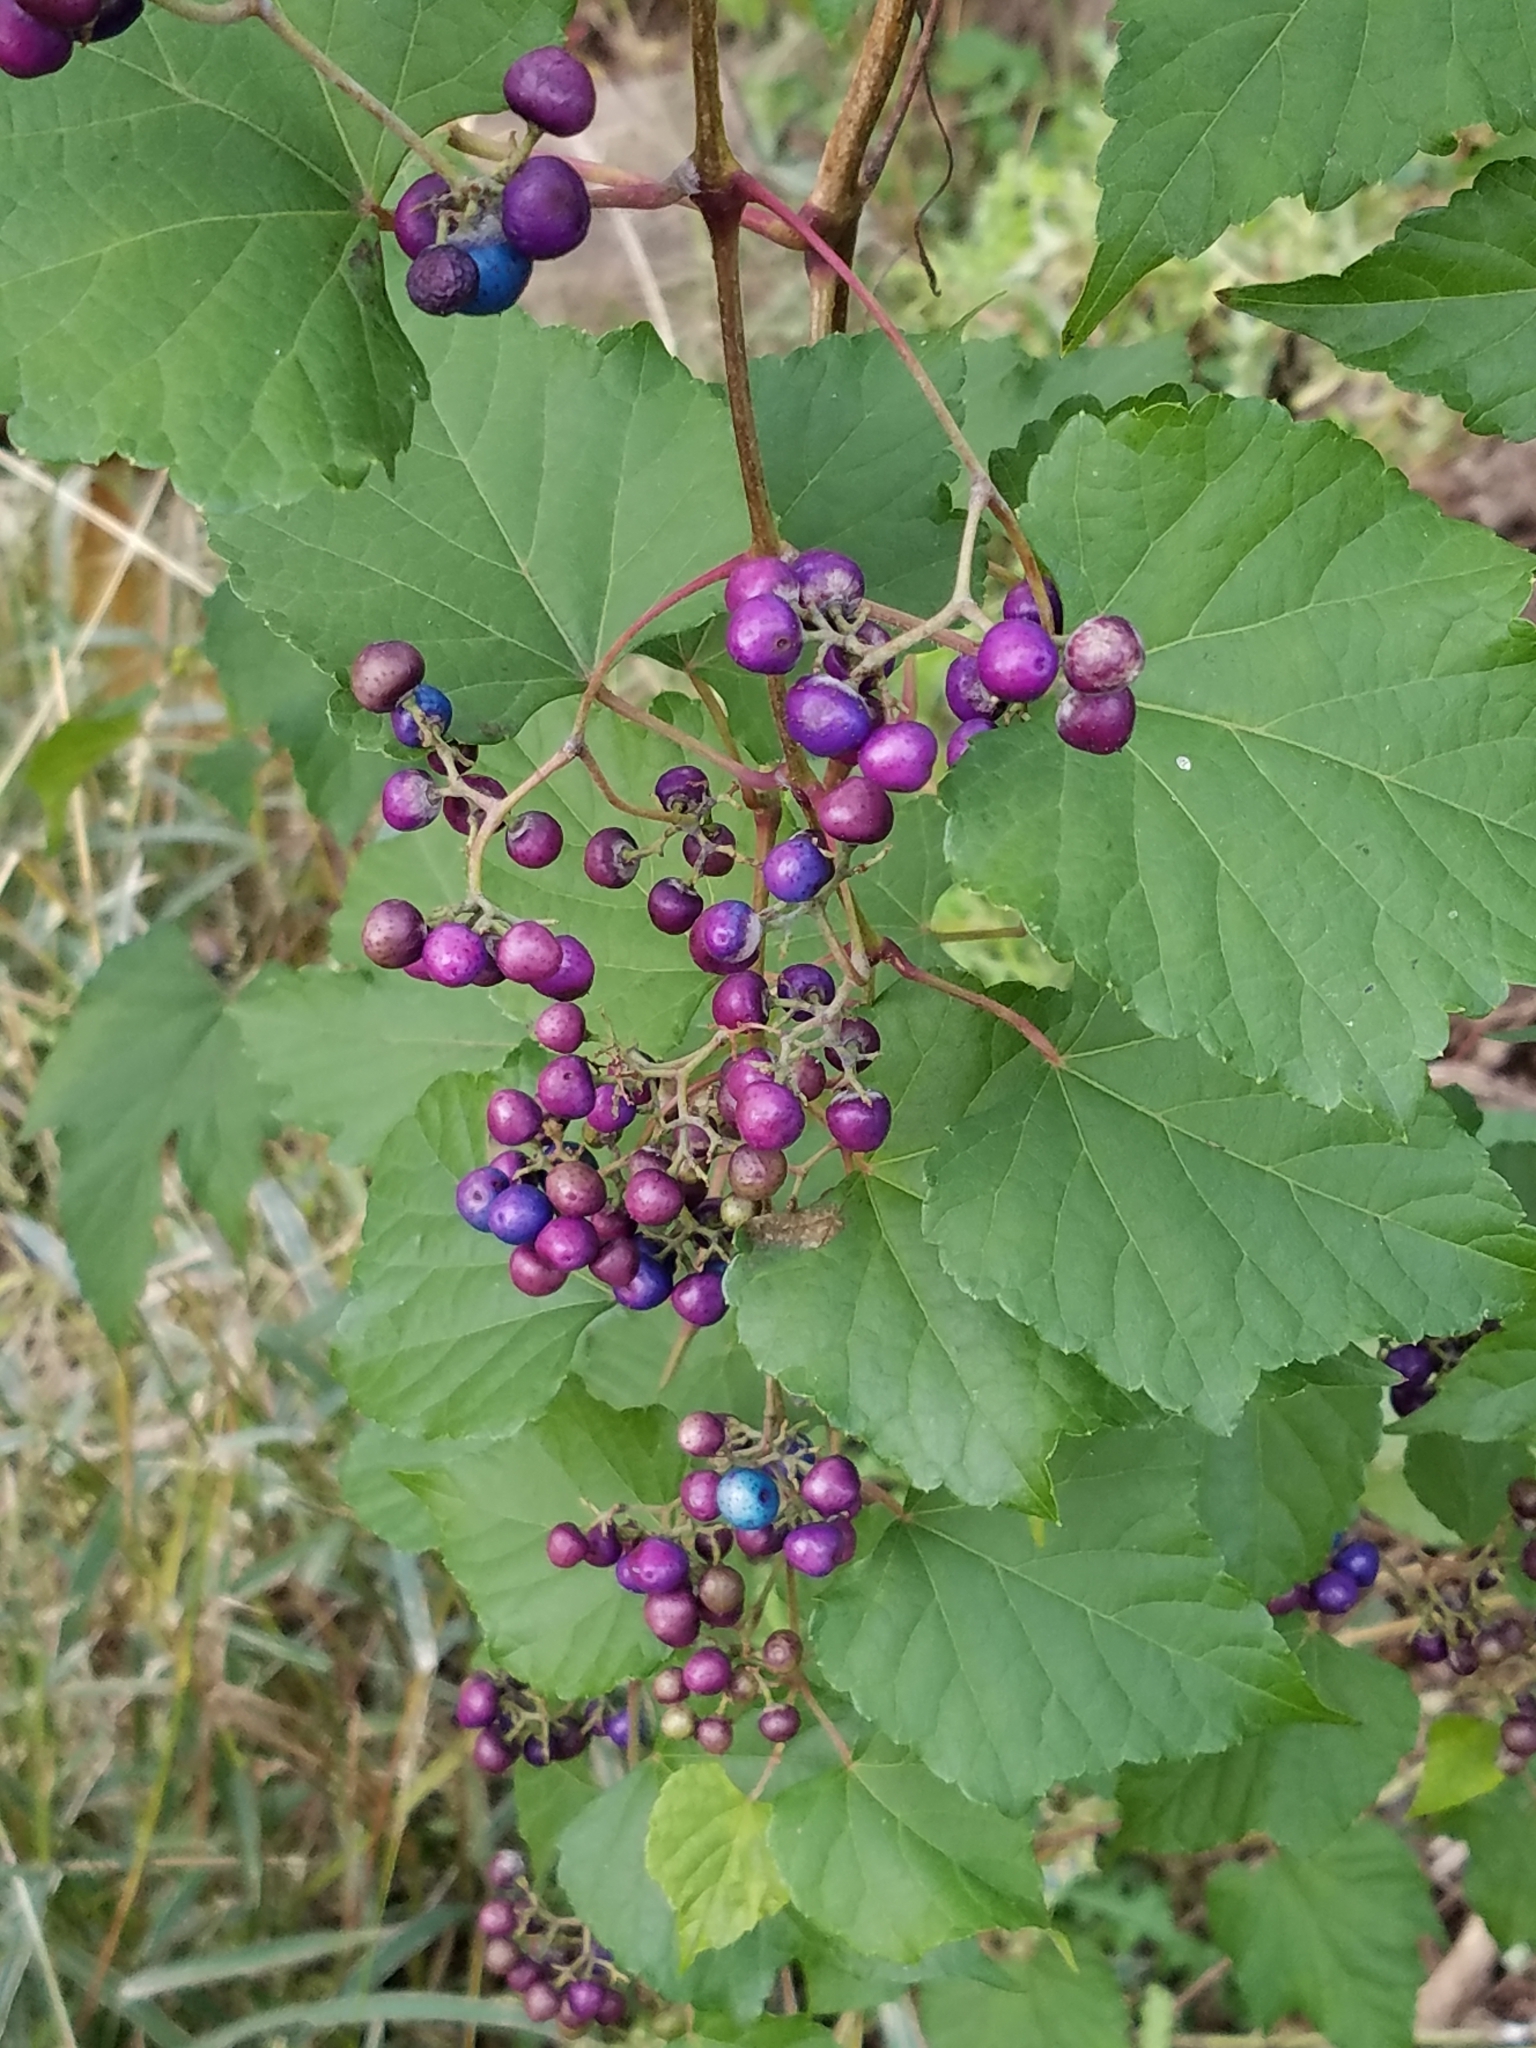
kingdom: Plantae
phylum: Tracheophyta
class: Magnoliopsida
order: Vitales
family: Vitaceae
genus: Ampelopsis
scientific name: Ampelopsis glandulosa
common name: Amur peppervine
